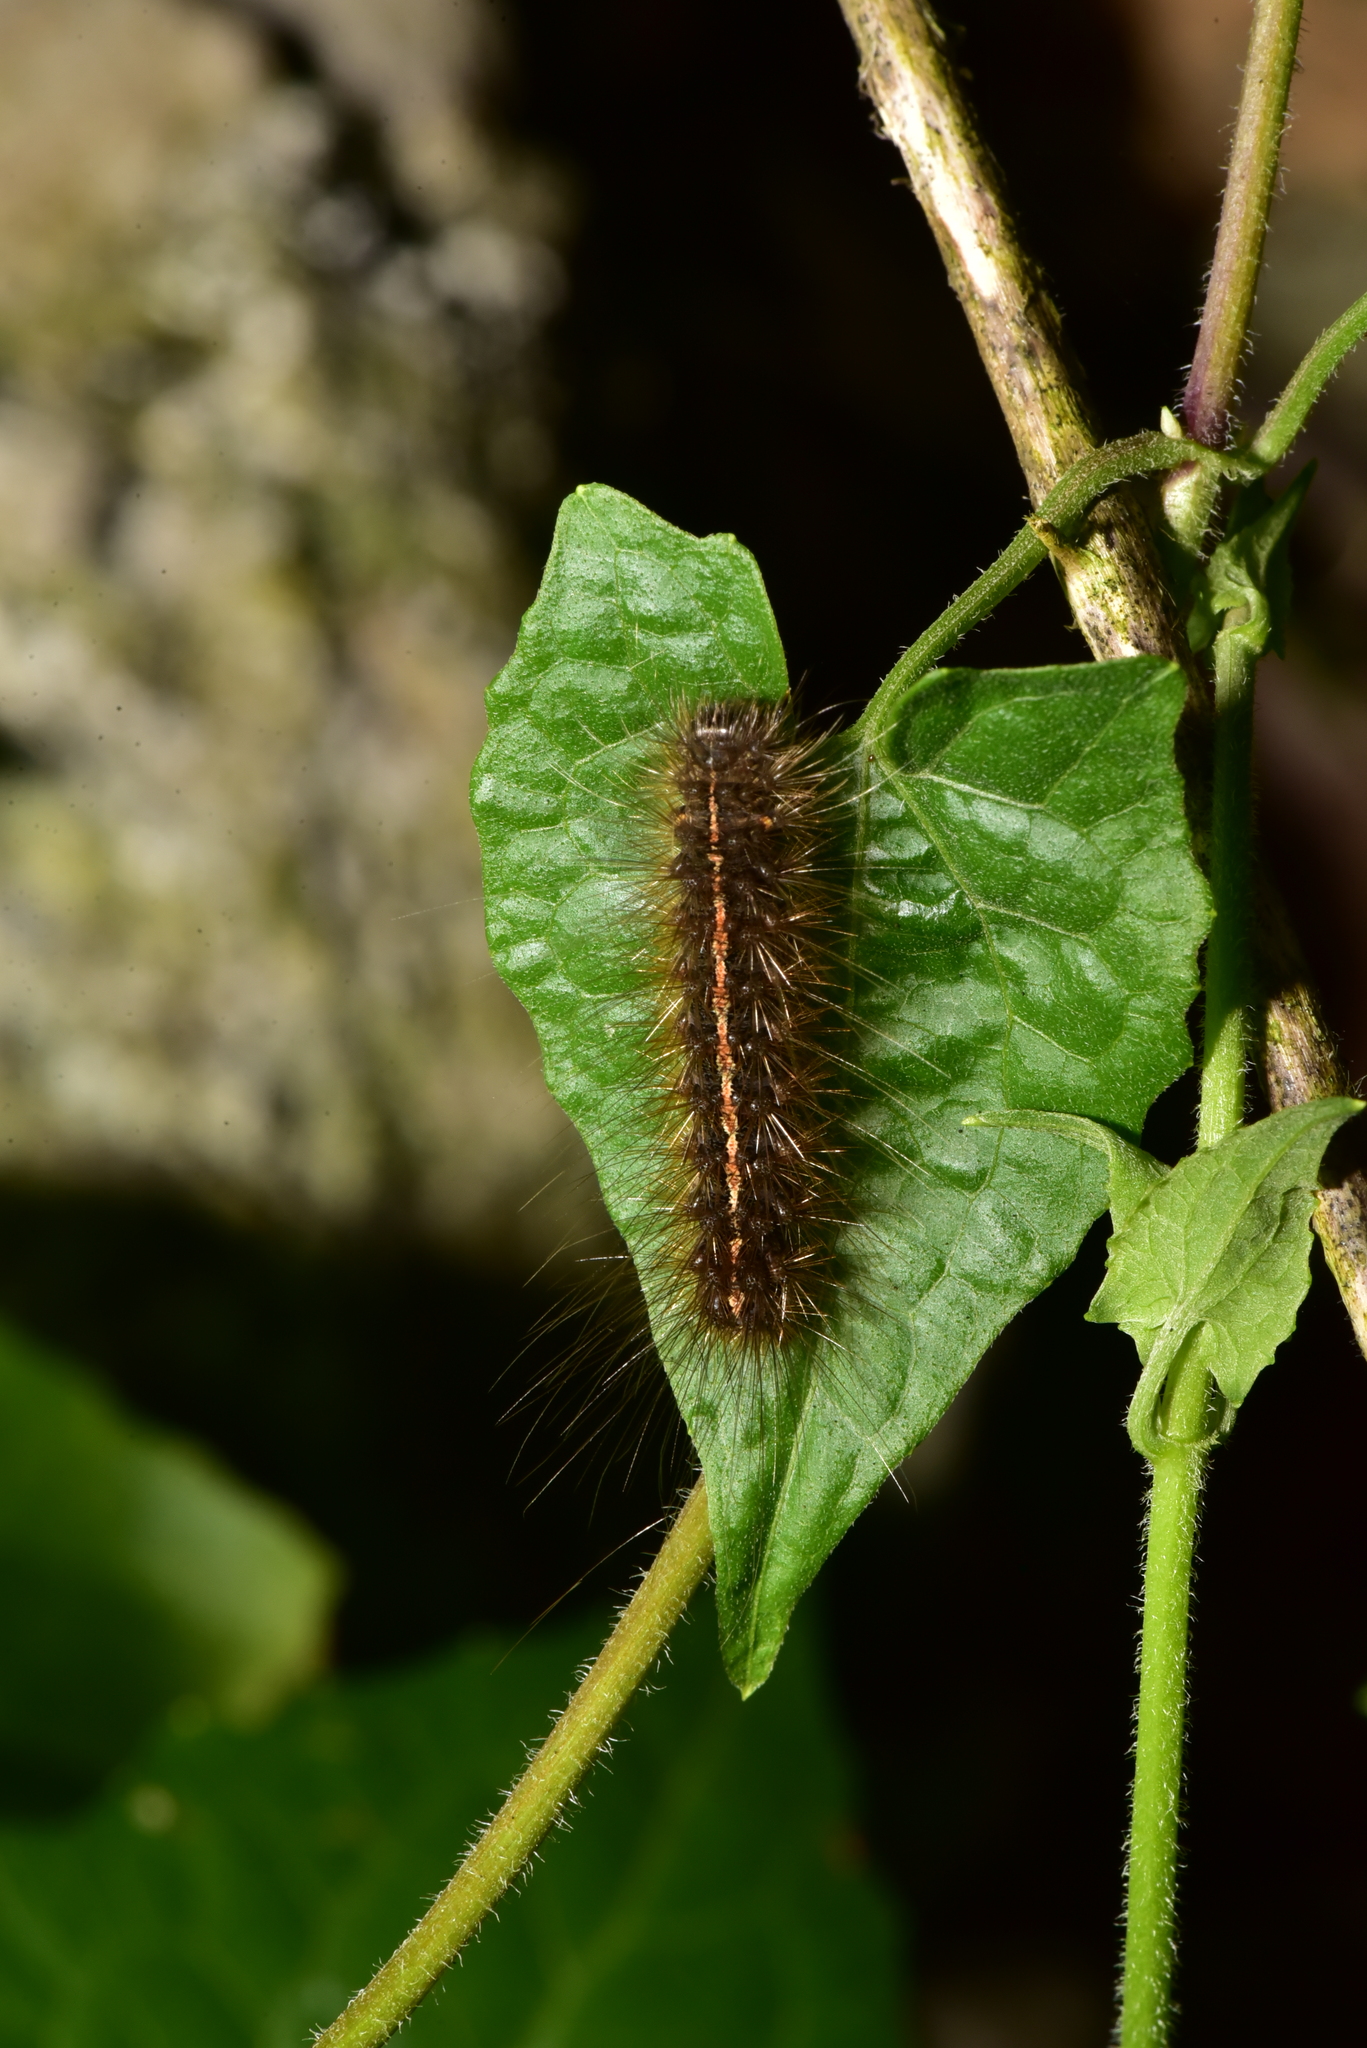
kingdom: Animalia
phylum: Arthropoda
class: Insecta
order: Lepidoptera
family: Erebidae
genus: Creatonotos
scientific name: Creatonotos transiens
